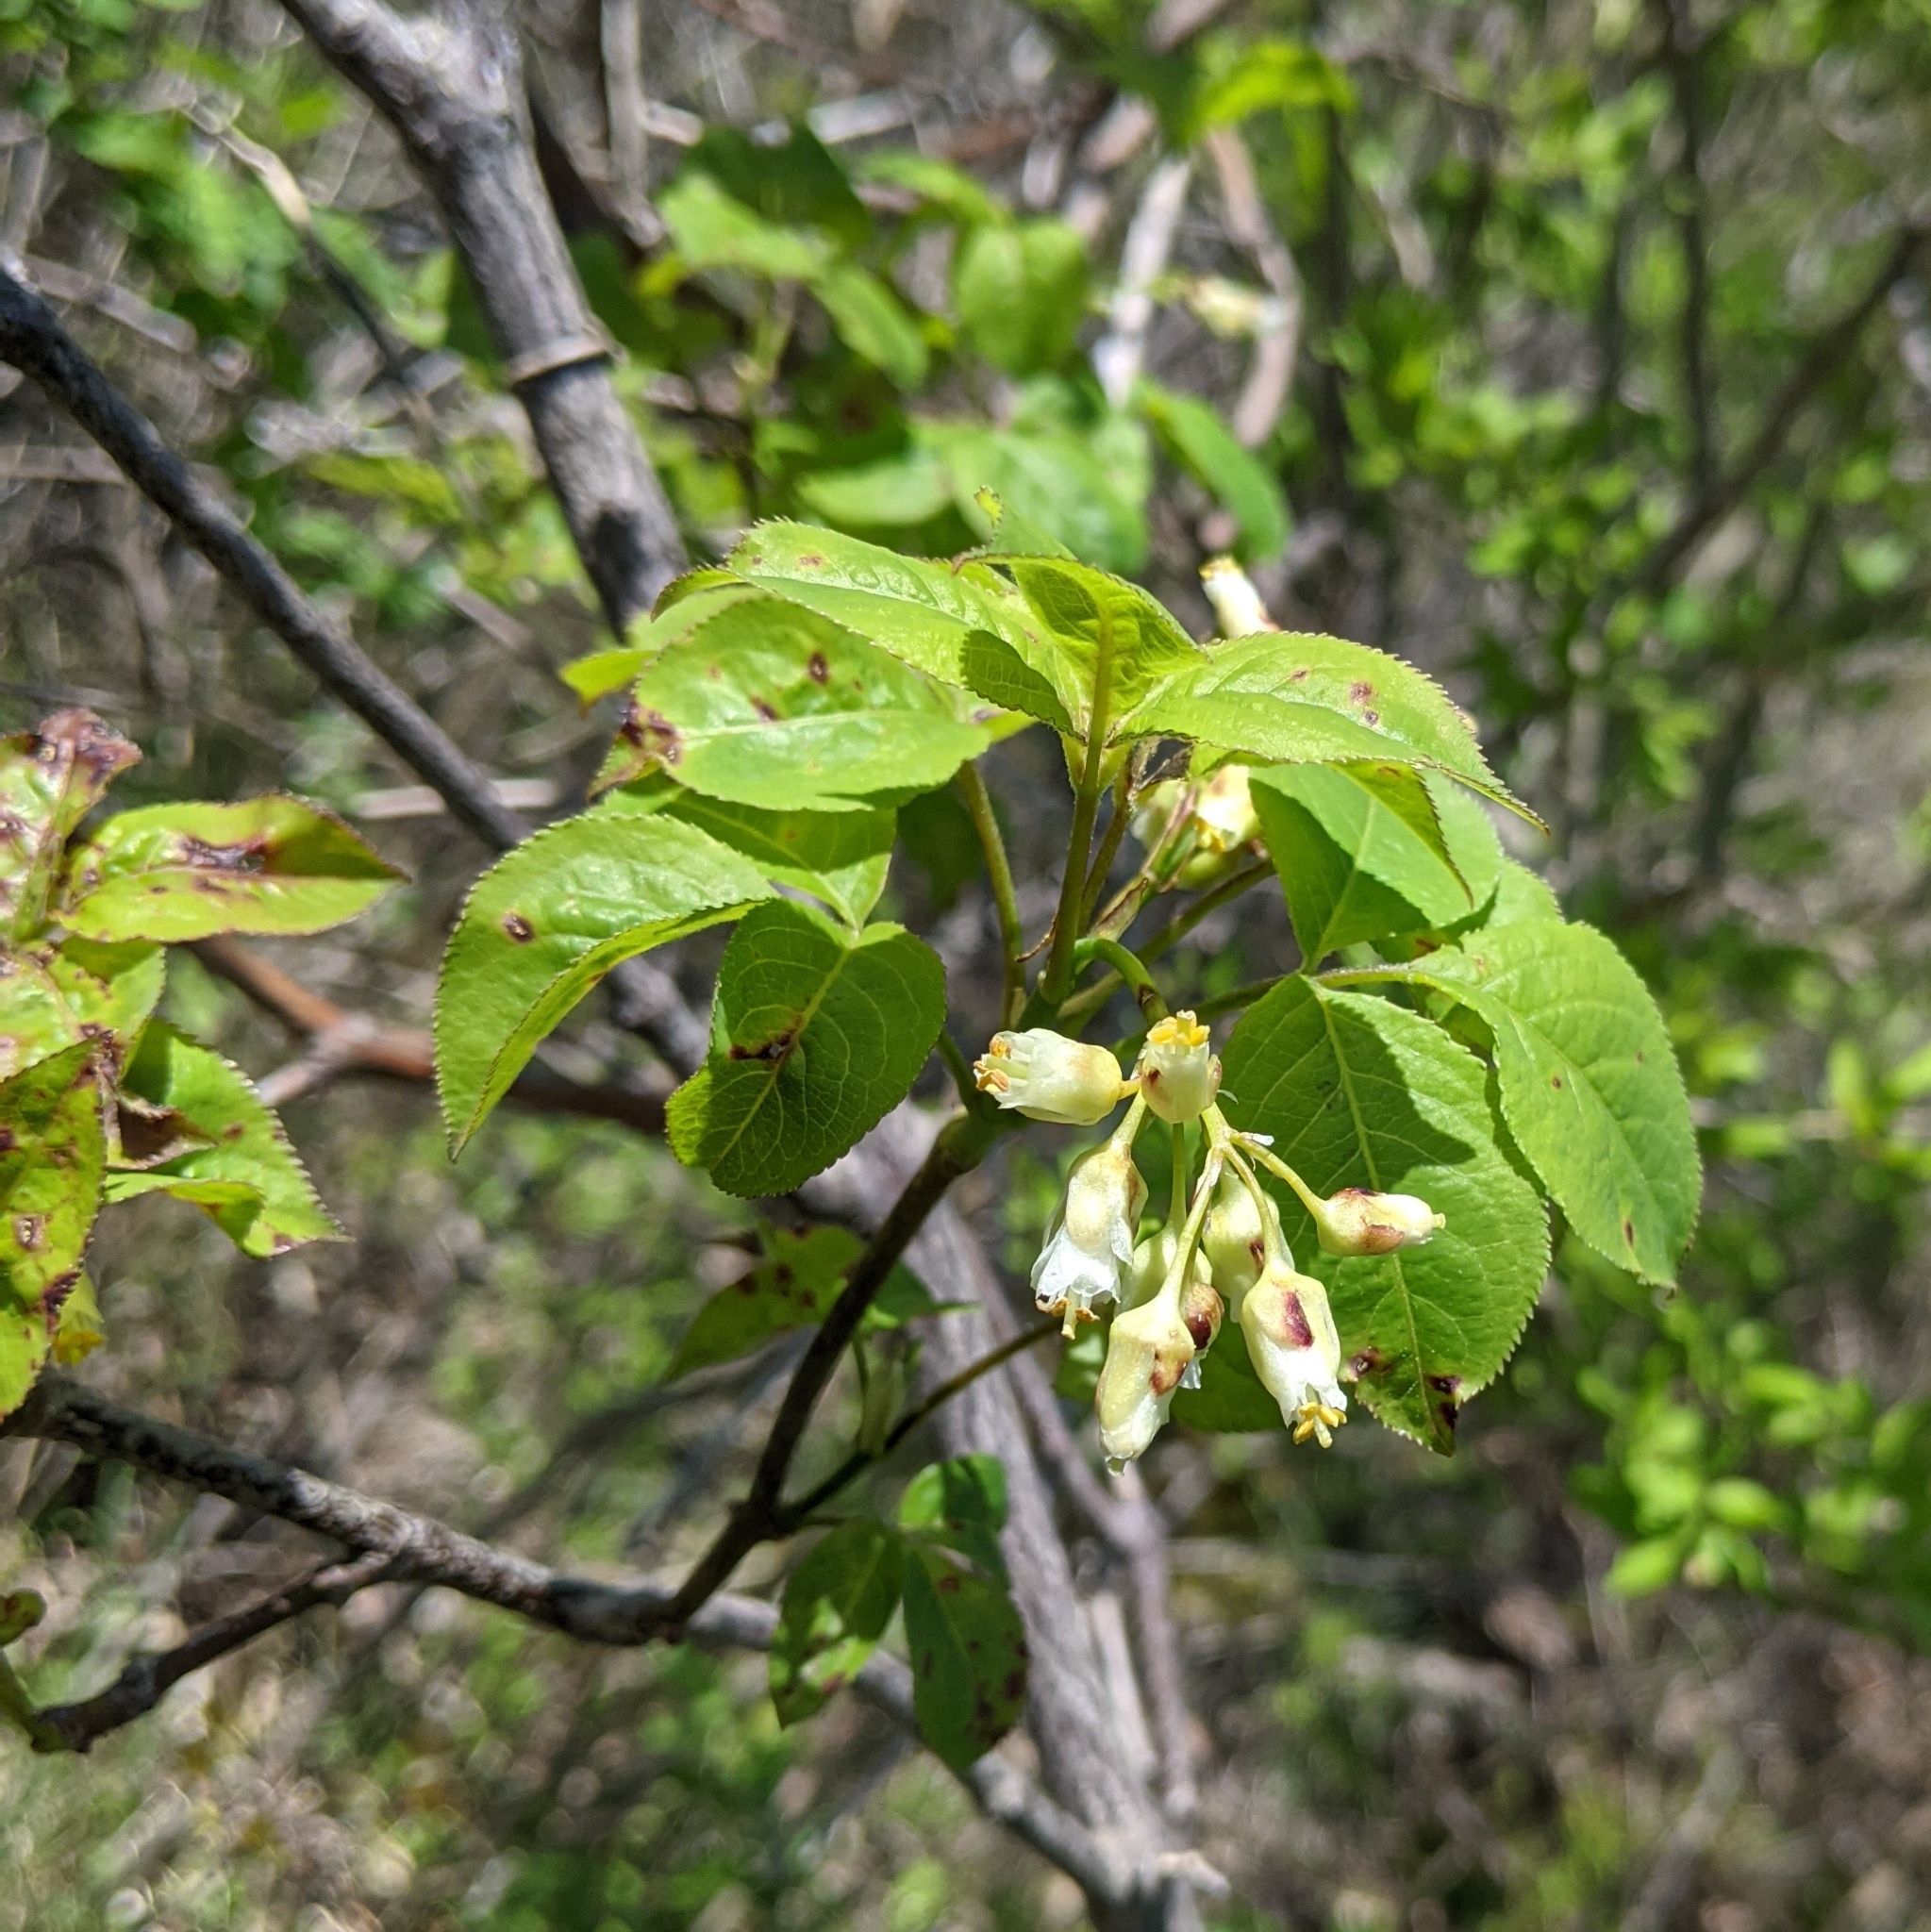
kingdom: Plantae
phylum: Tracheophyta
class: Magnoliopsida
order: Crossosomatales
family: Staphyleaceae
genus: Staphylea
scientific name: Staphylea trifolia
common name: American bladdernut
